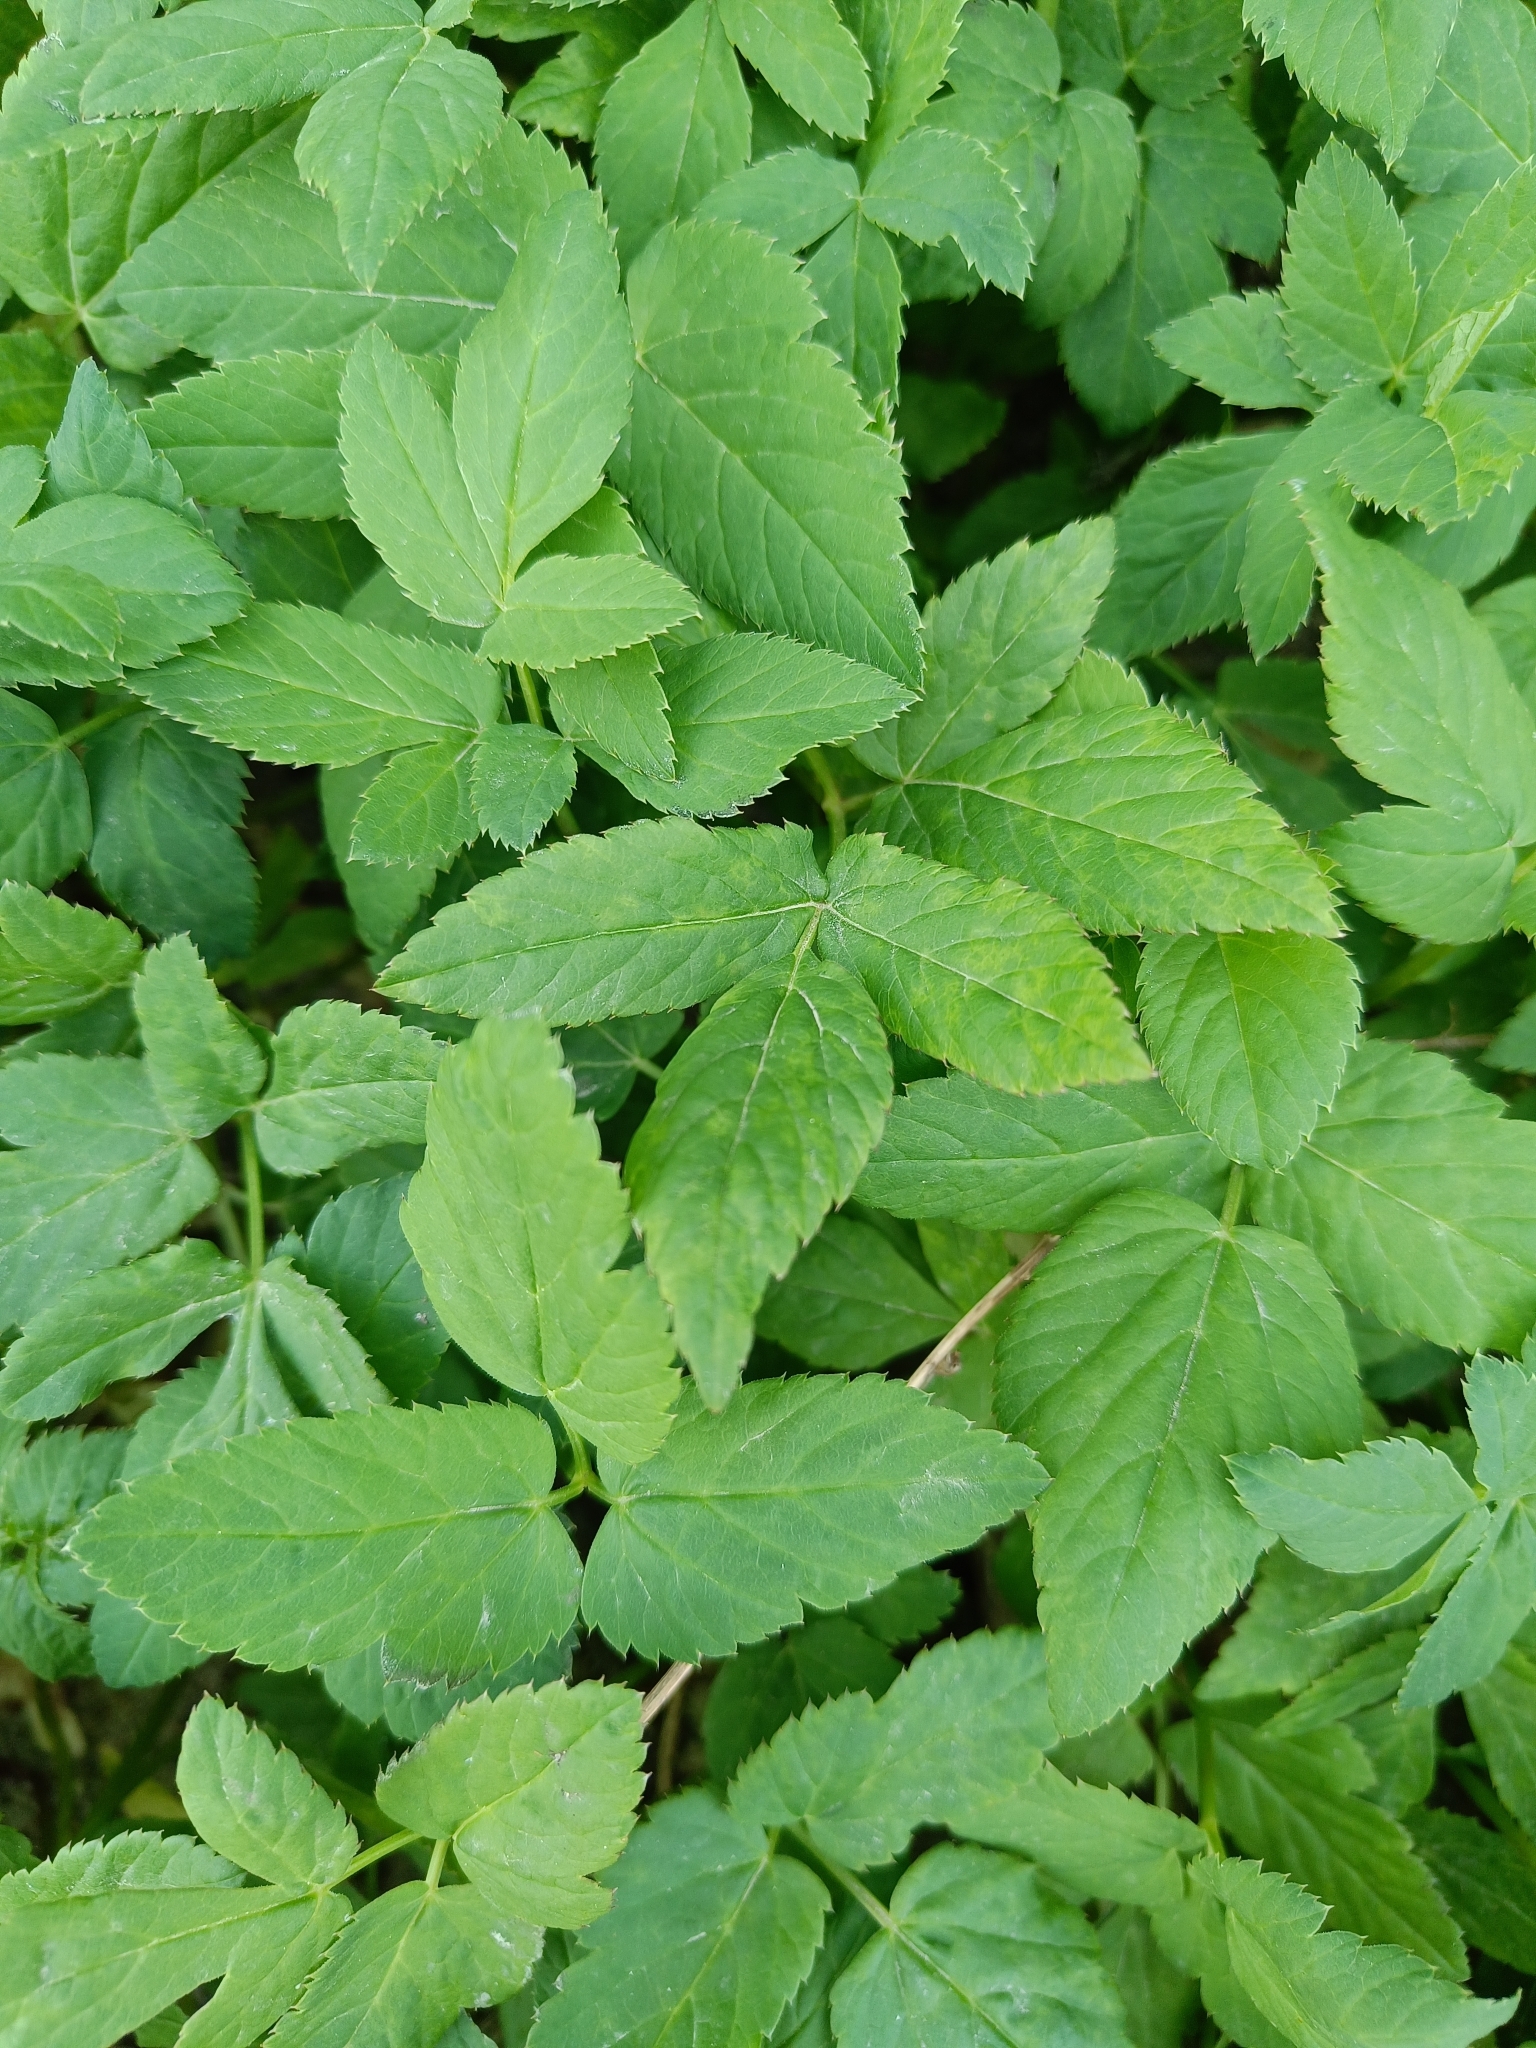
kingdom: Plantae
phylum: Tracheophyta
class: Magnoliopsida
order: Apiales
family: Apiaceae
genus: Aegopodium
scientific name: Aegopodium podagraria
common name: Ground-elder
